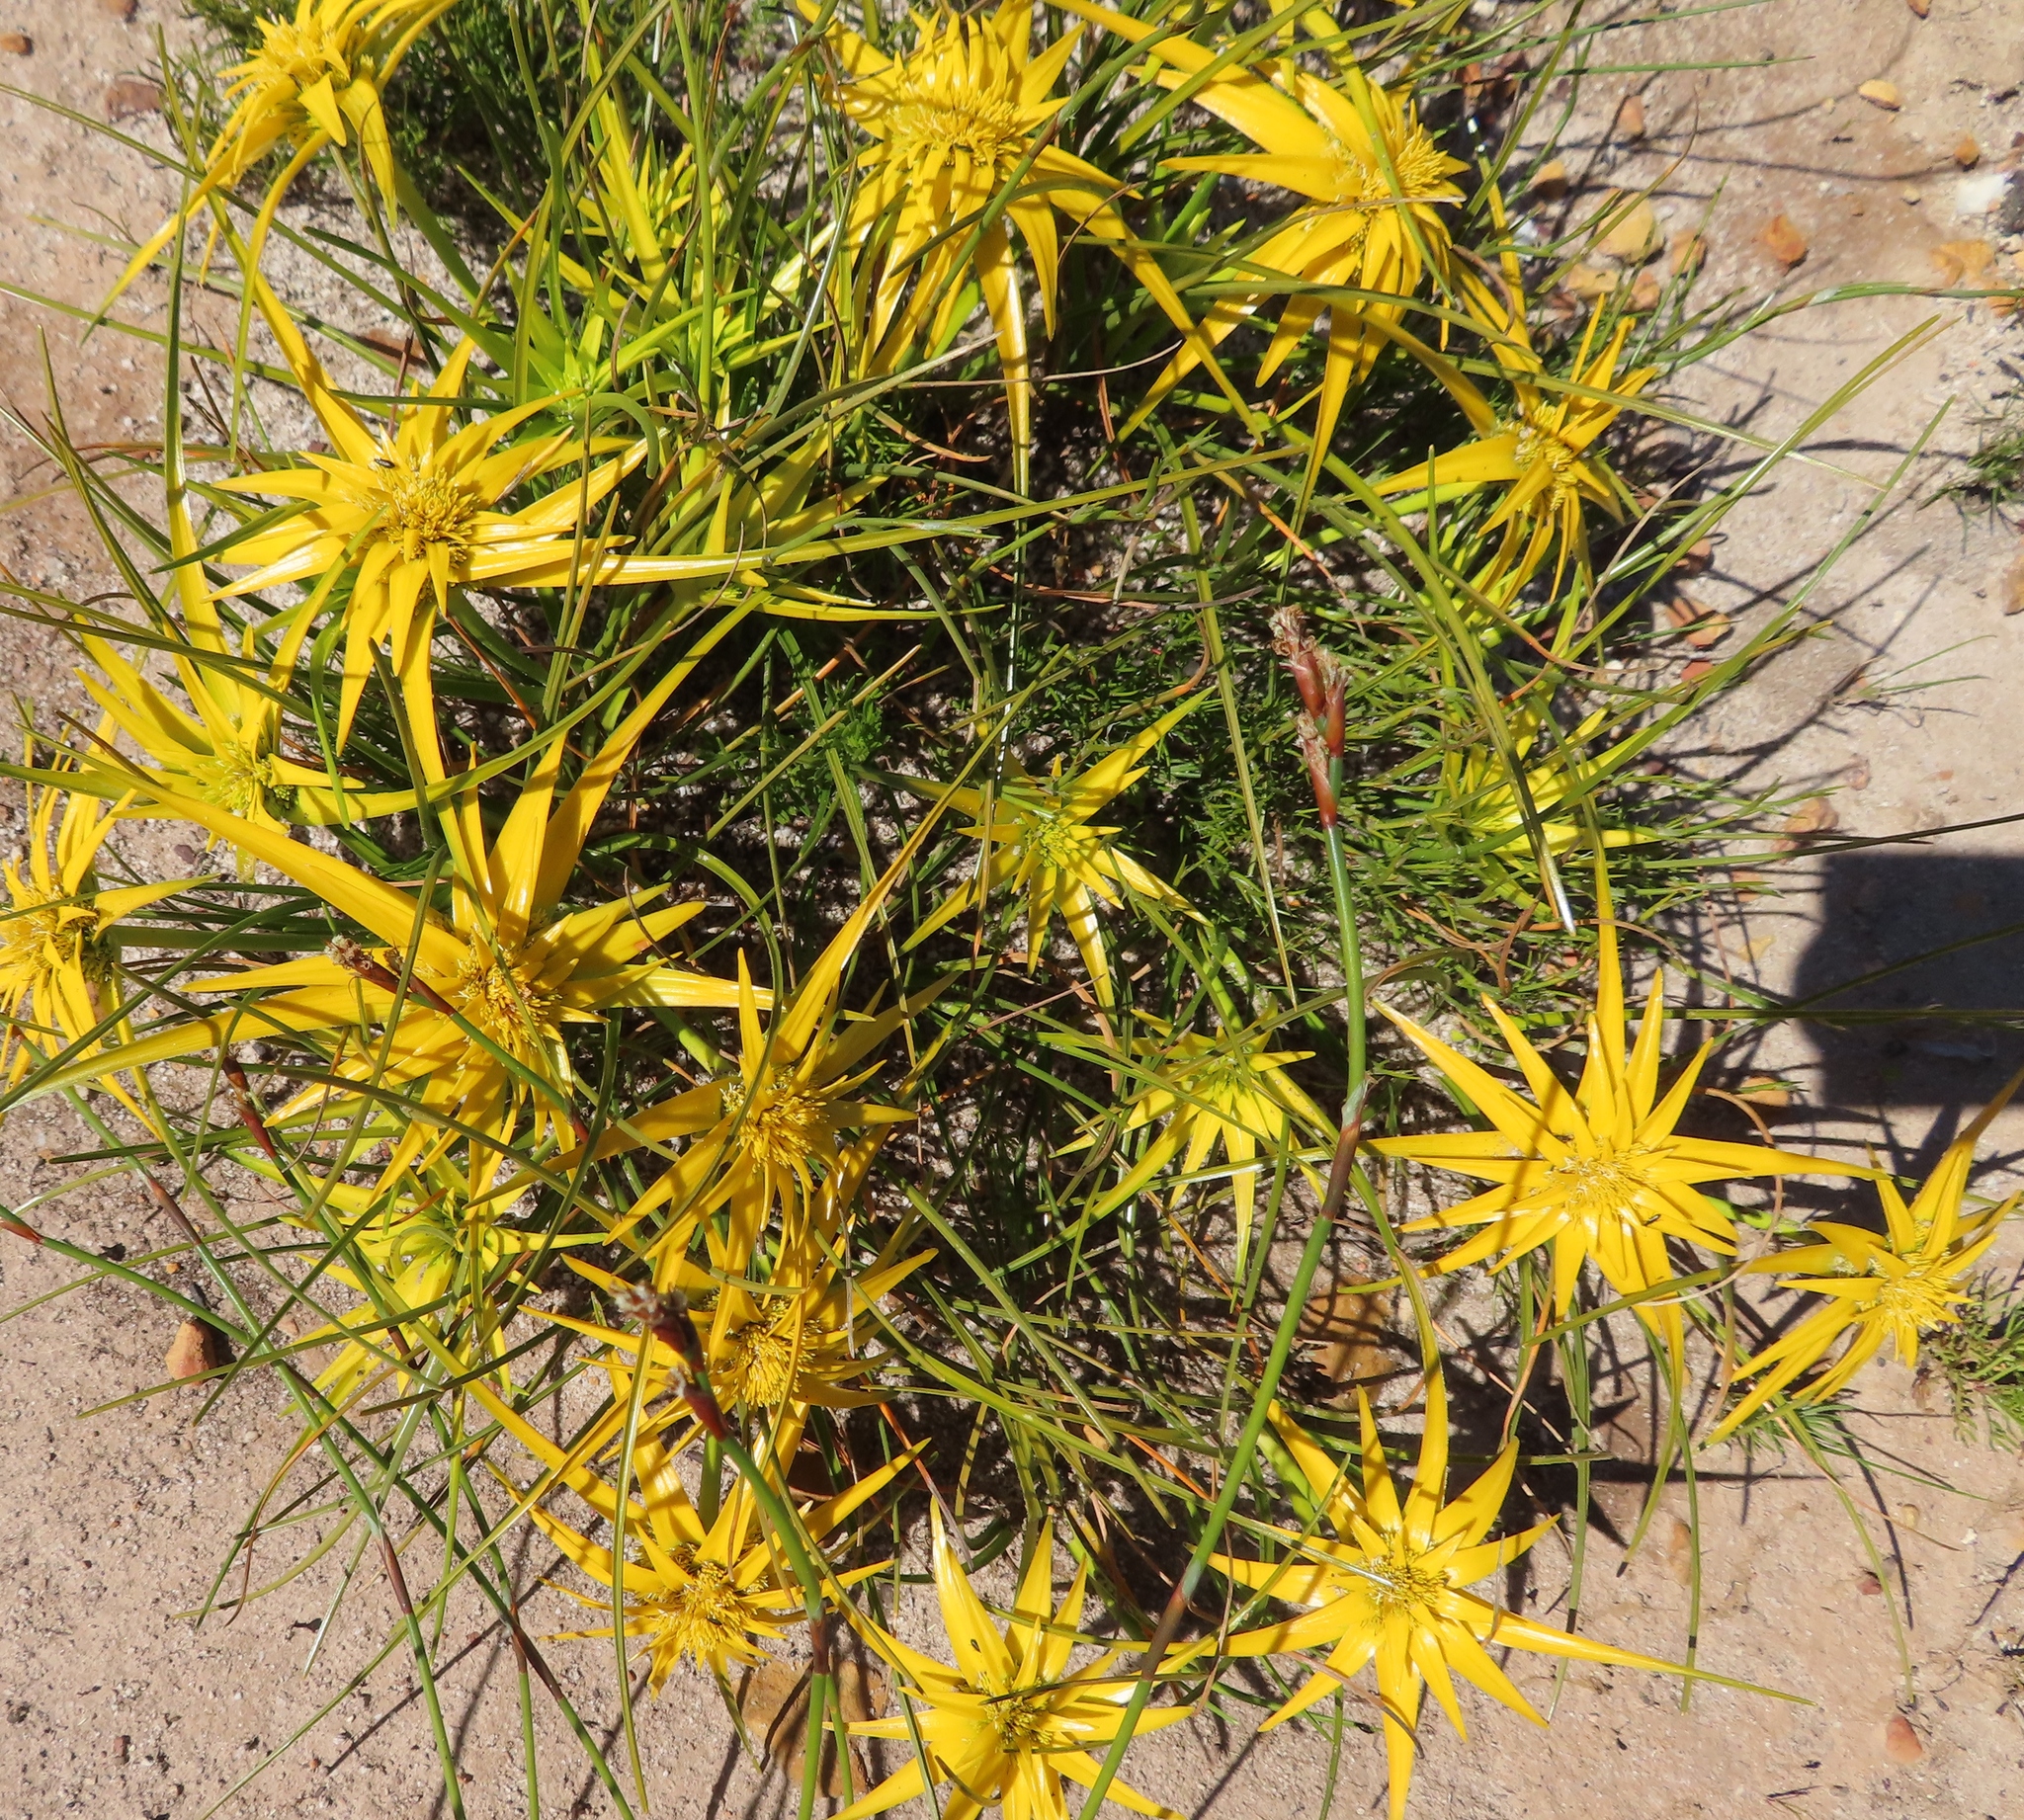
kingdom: Plantae
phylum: Tracheophyta
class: Liliopsida
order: Poales
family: Cyperaceae
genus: Ficinia
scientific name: Ficinia radiata
